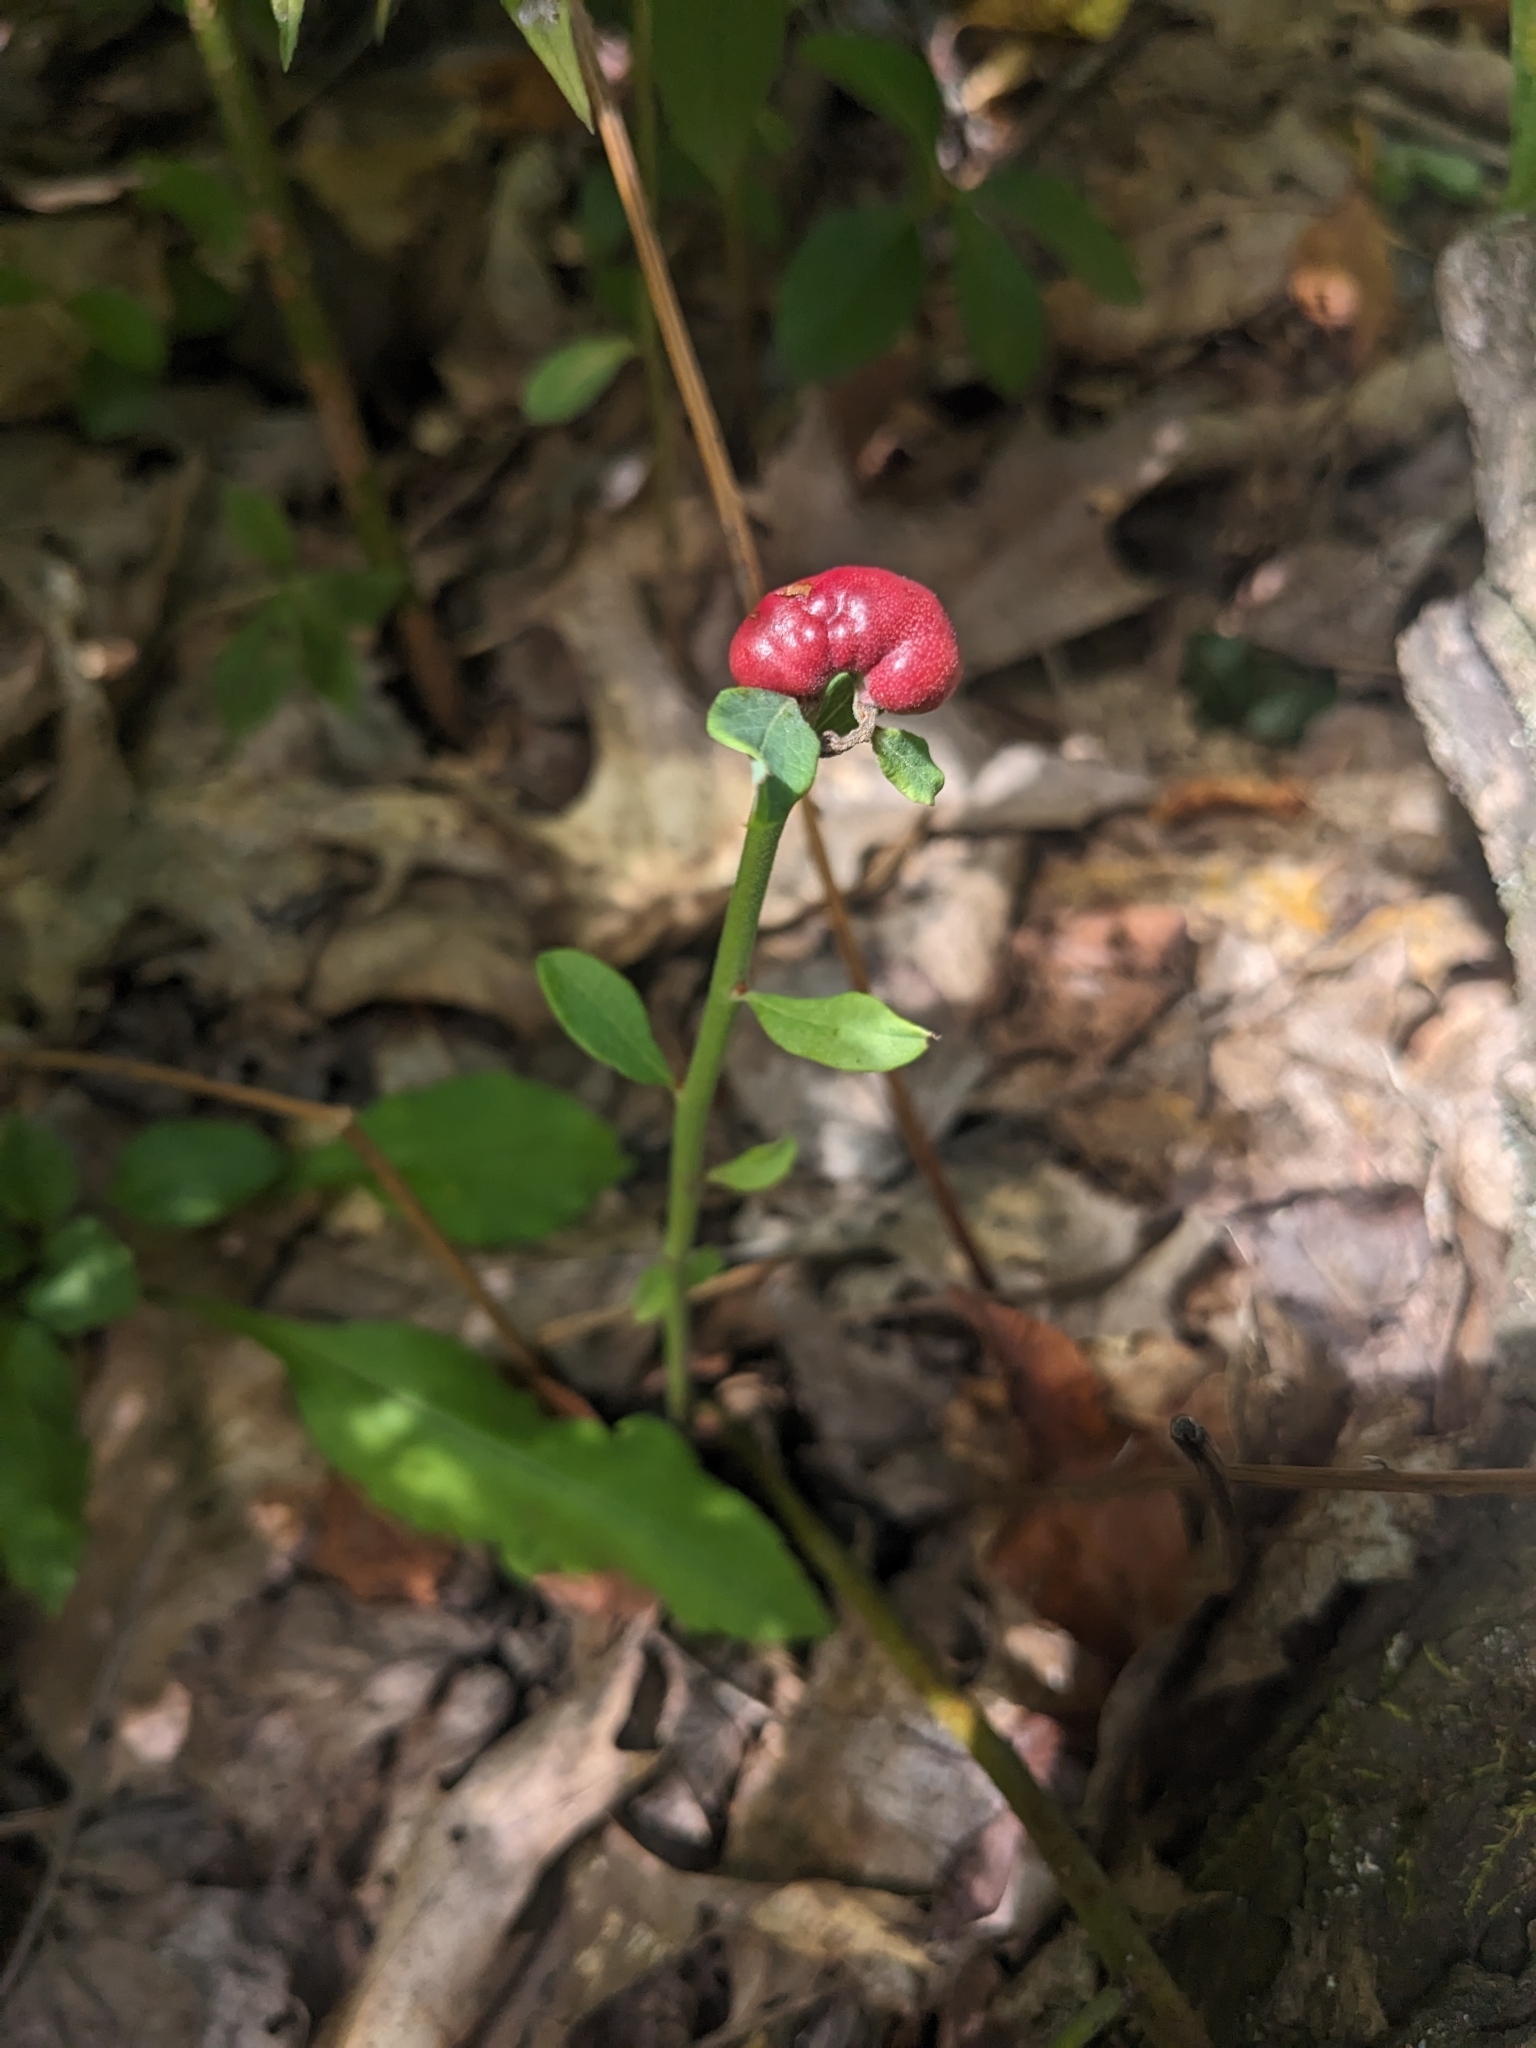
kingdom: Animalia
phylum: Arthropoda
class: Insecta
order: Hymenoptera
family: Pteromalidae
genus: Hemadas
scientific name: Hemadas nubilipennis
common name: Blueberry stem gall wasp
